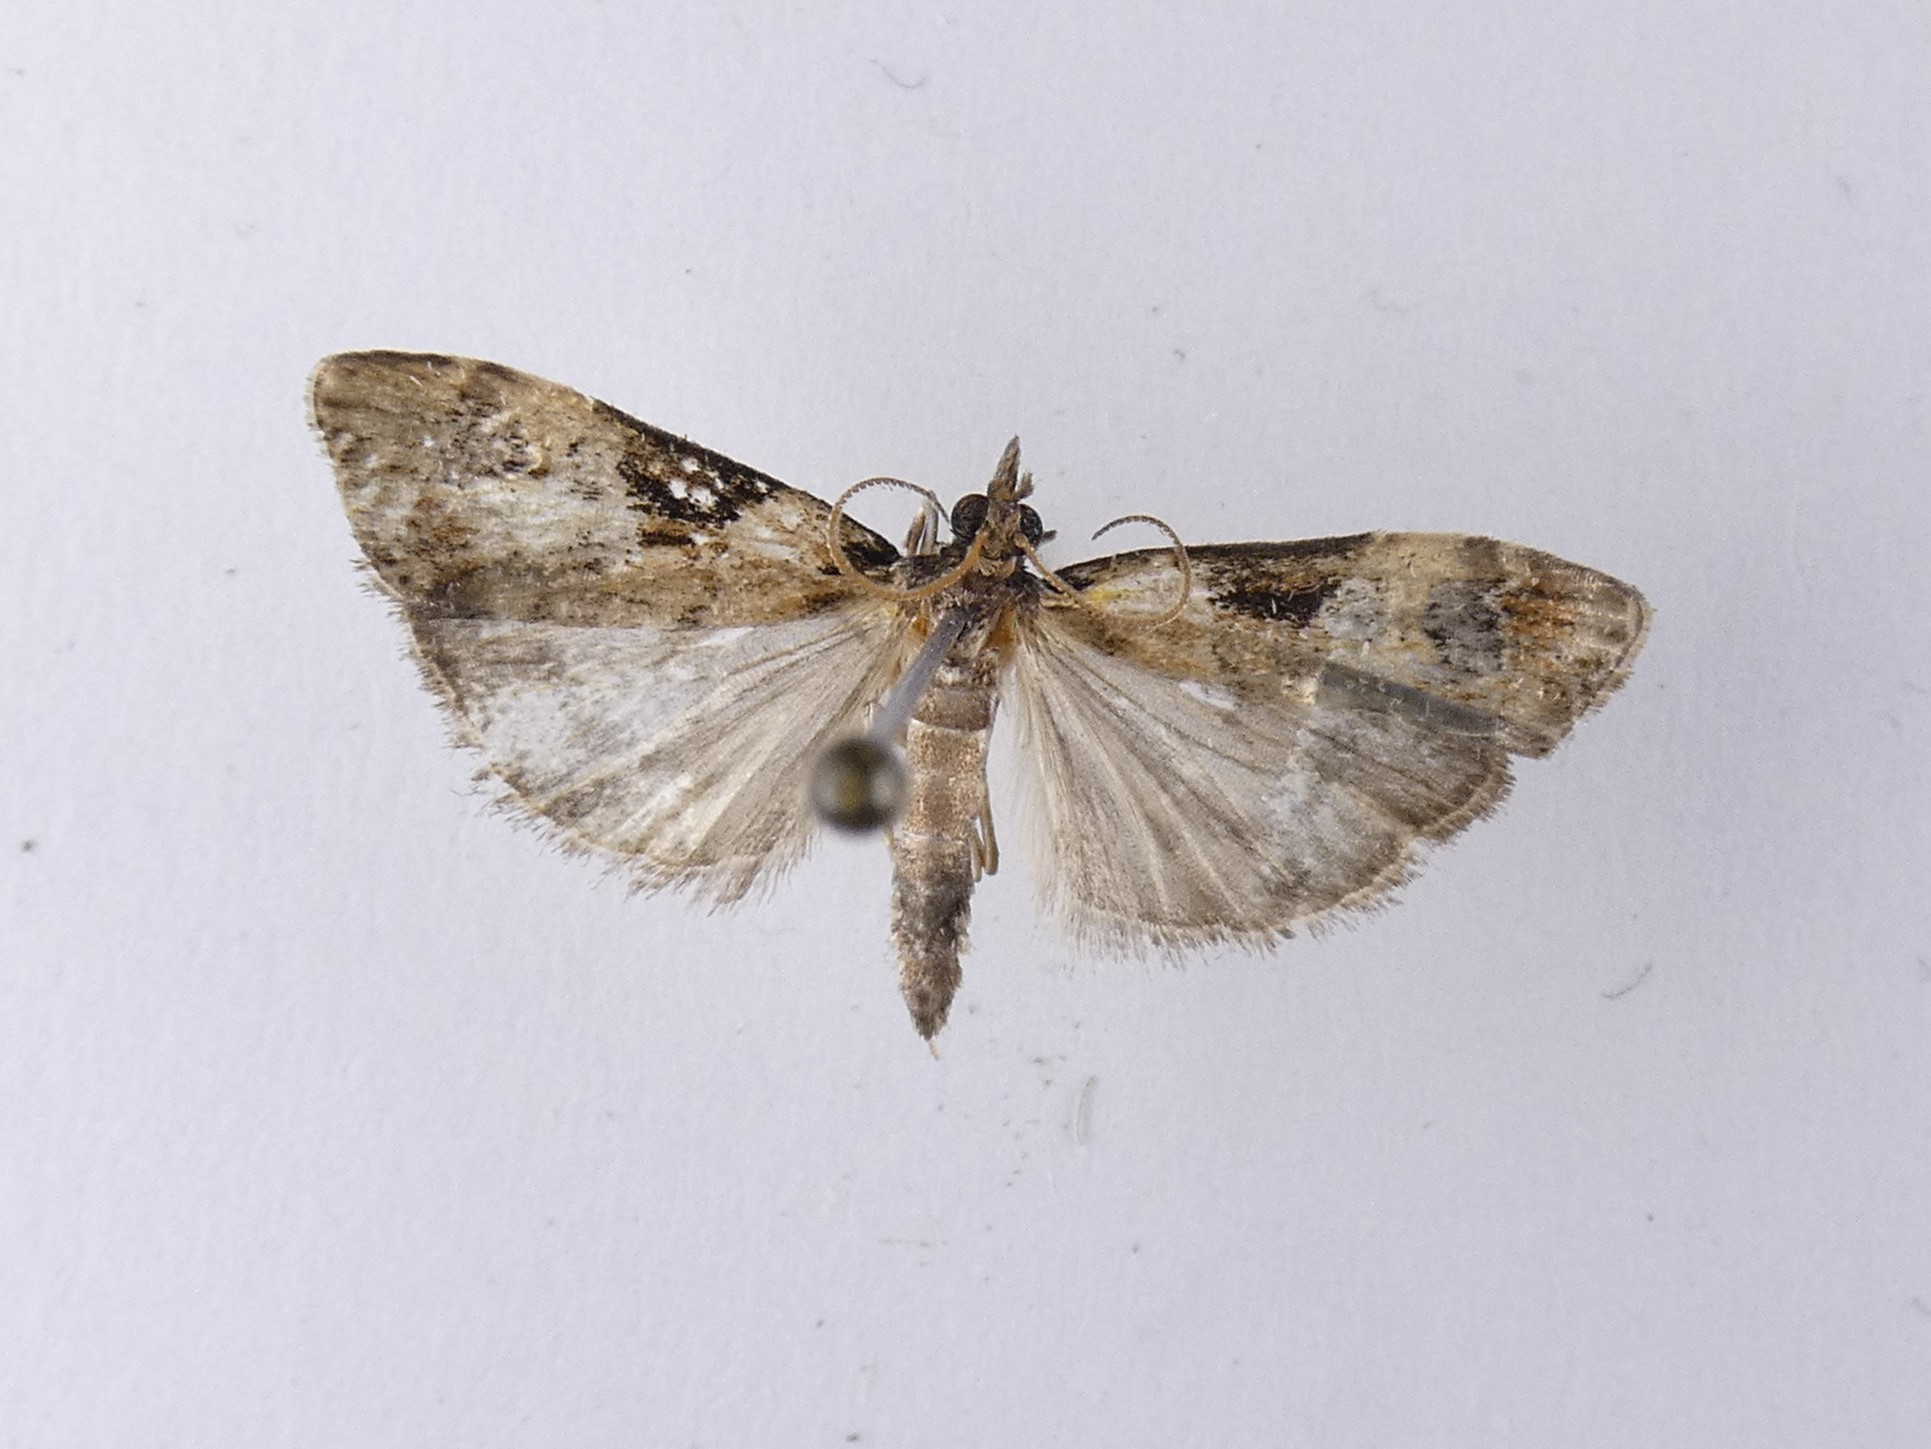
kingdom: Animalia
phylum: Arthropoda
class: Insecta
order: Lepidoptera
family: Crambidae
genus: Scoparia
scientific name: Scoparia acharis
